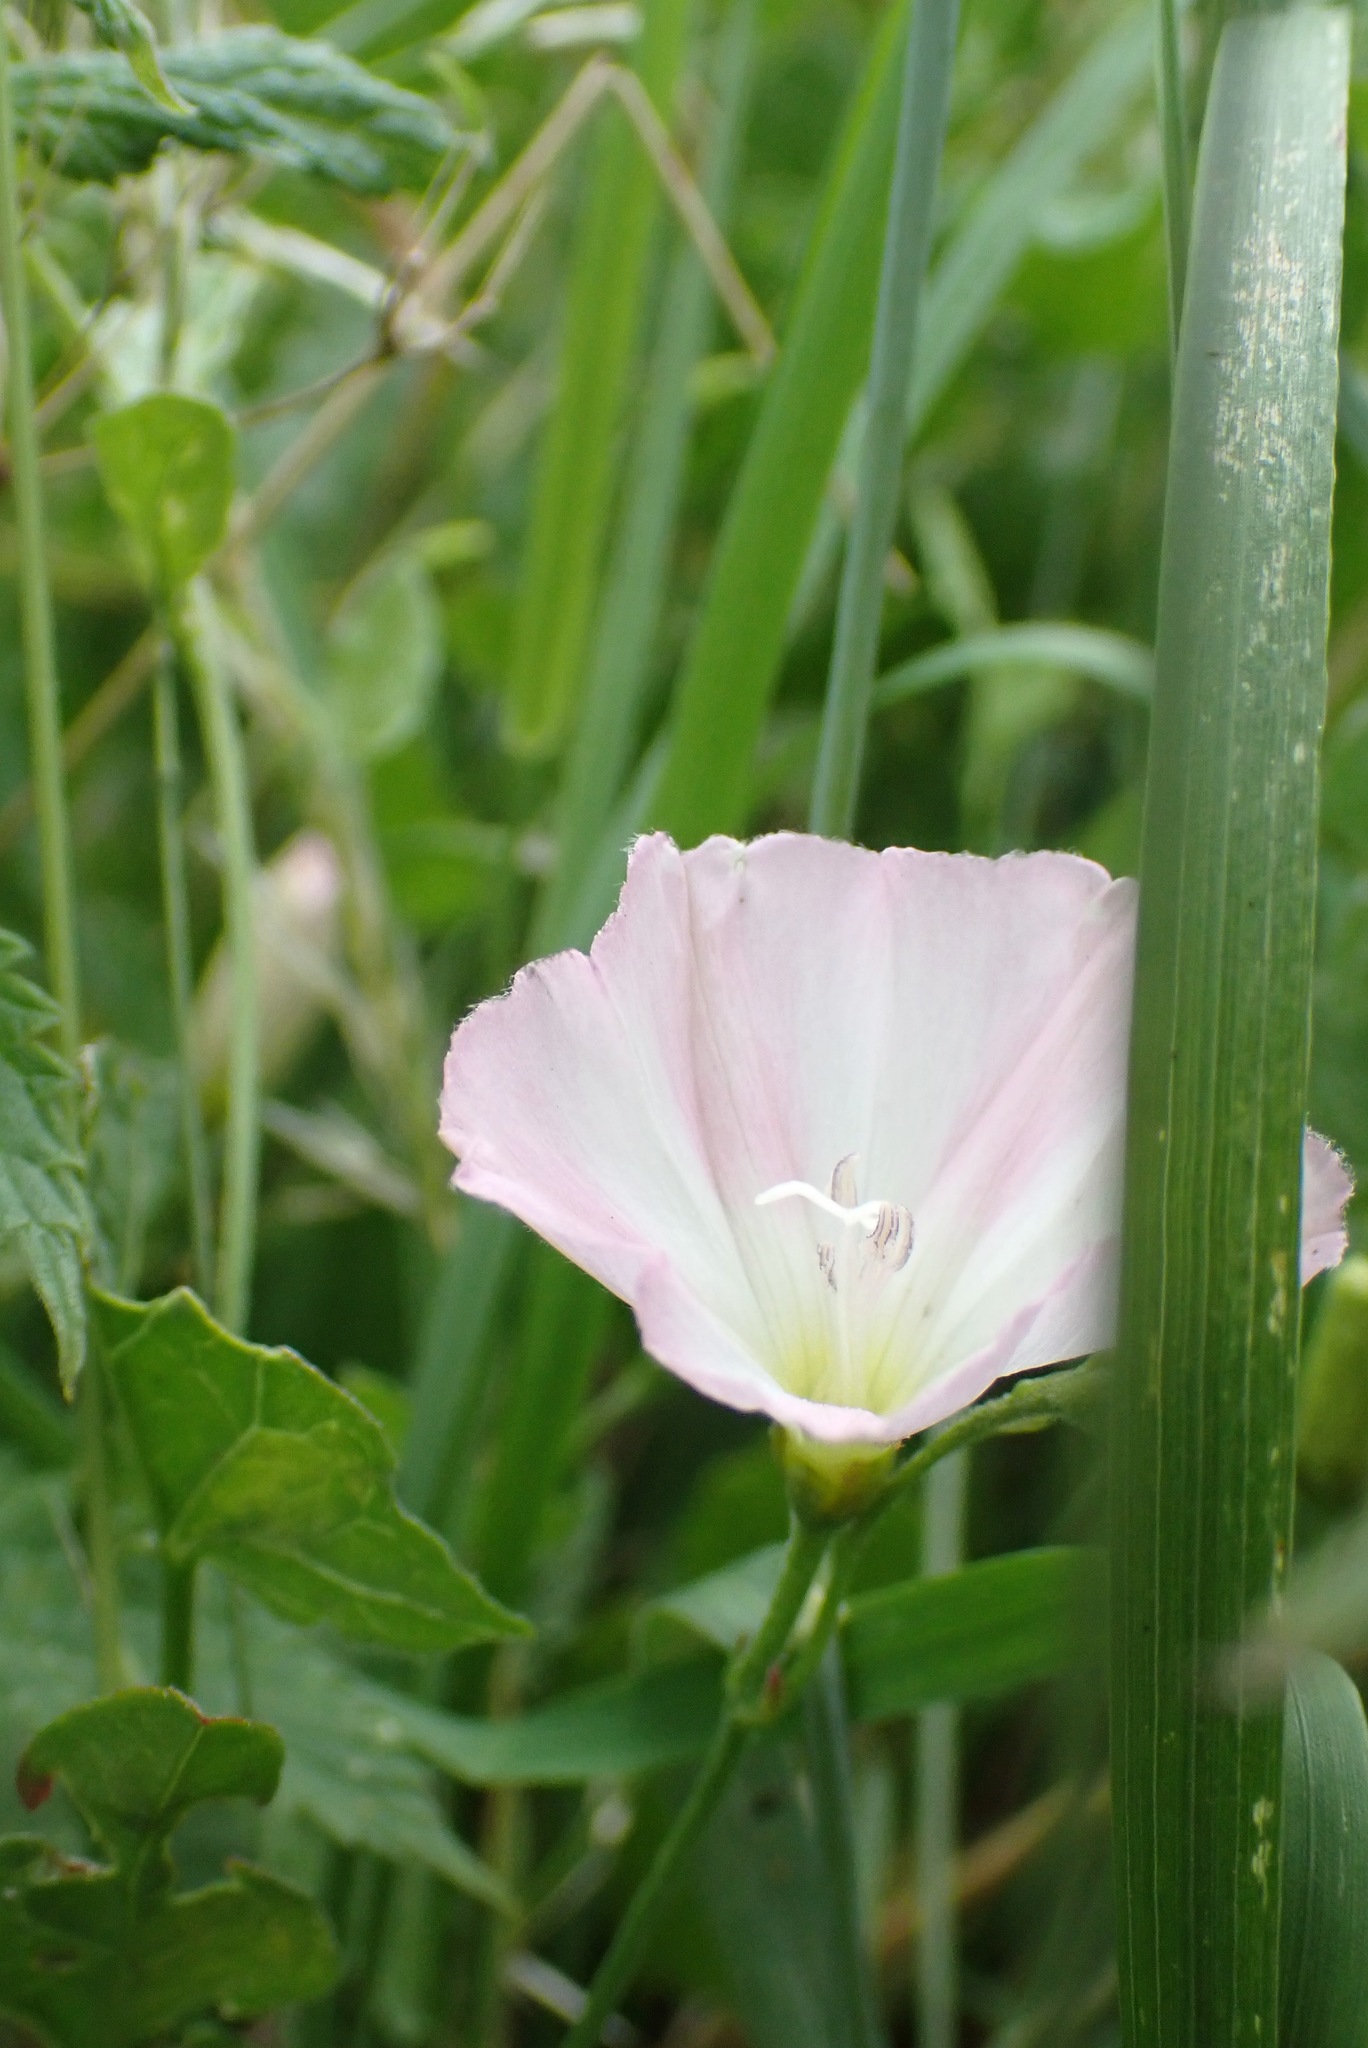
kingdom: Plantae
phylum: Tracheophyta
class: Magnoliopsida
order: Solanales
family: Convolvulaceae
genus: Convolvulus
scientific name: Convolvulus arvensis
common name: Field bindweed
